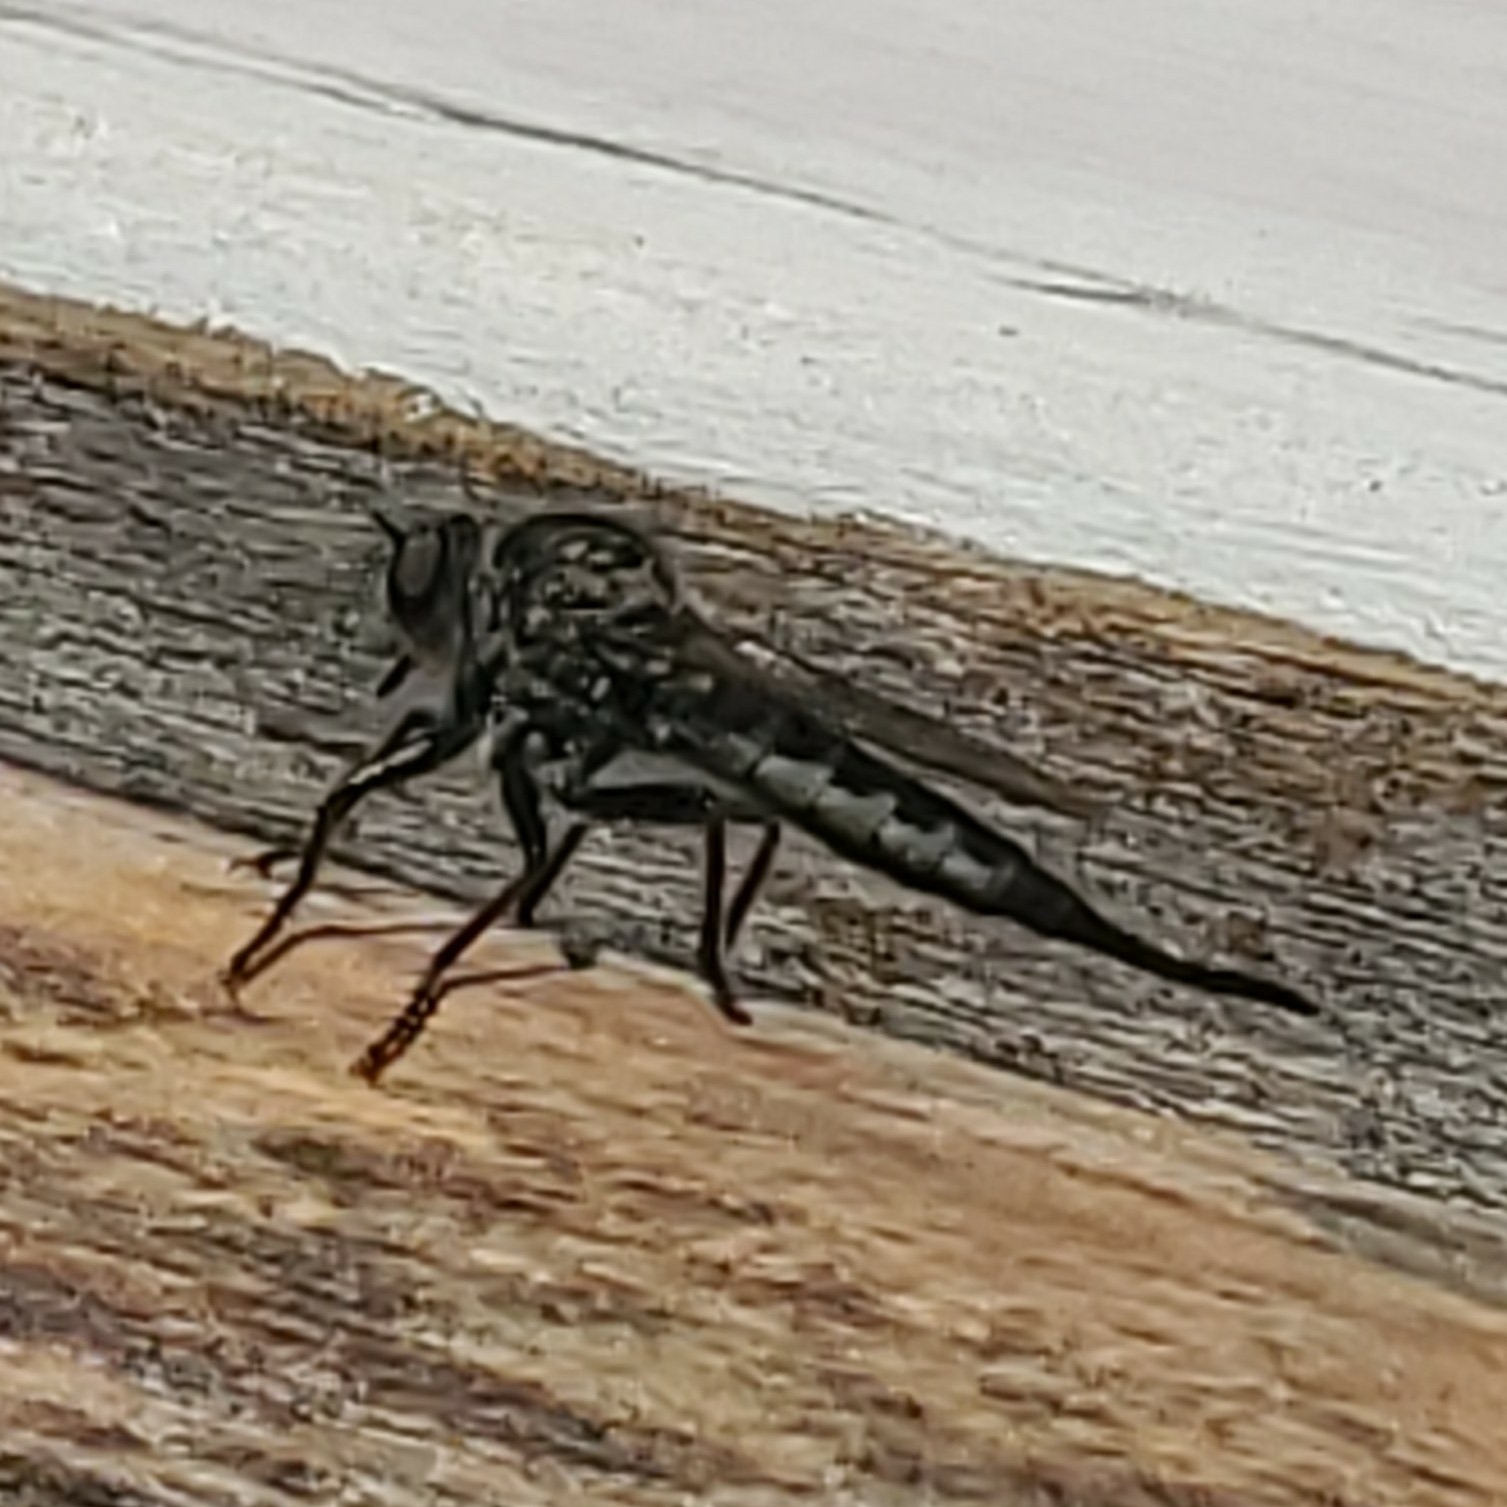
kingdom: Animalia
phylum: Arthropoda
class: Insecta
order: Diptera
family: Asilidae
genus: Efferia
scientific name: Efferia aestuans
